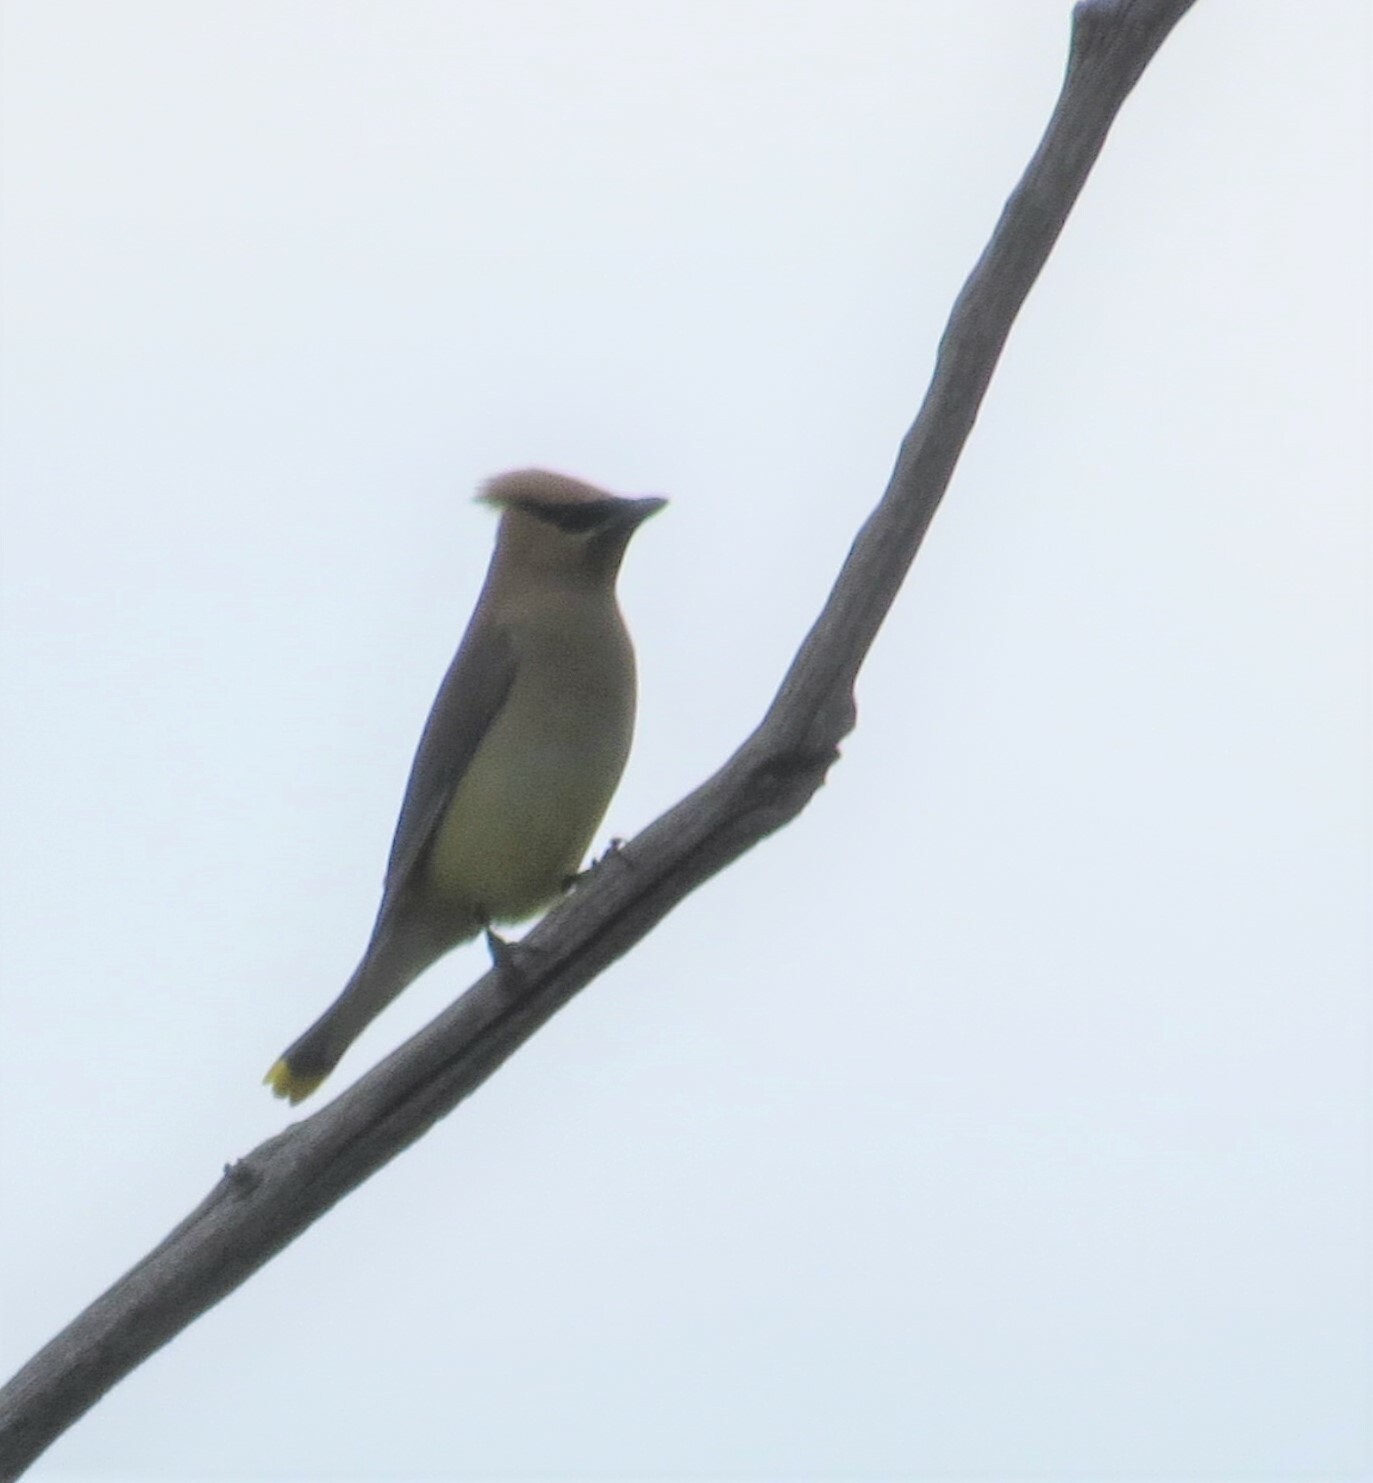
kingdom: Animalia
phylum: Chordata
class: Aves
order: Passeriformes
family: Bombycillidae
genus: Bombycilla
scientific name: Bombycilla cedrorum
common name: Cedar waxwing
